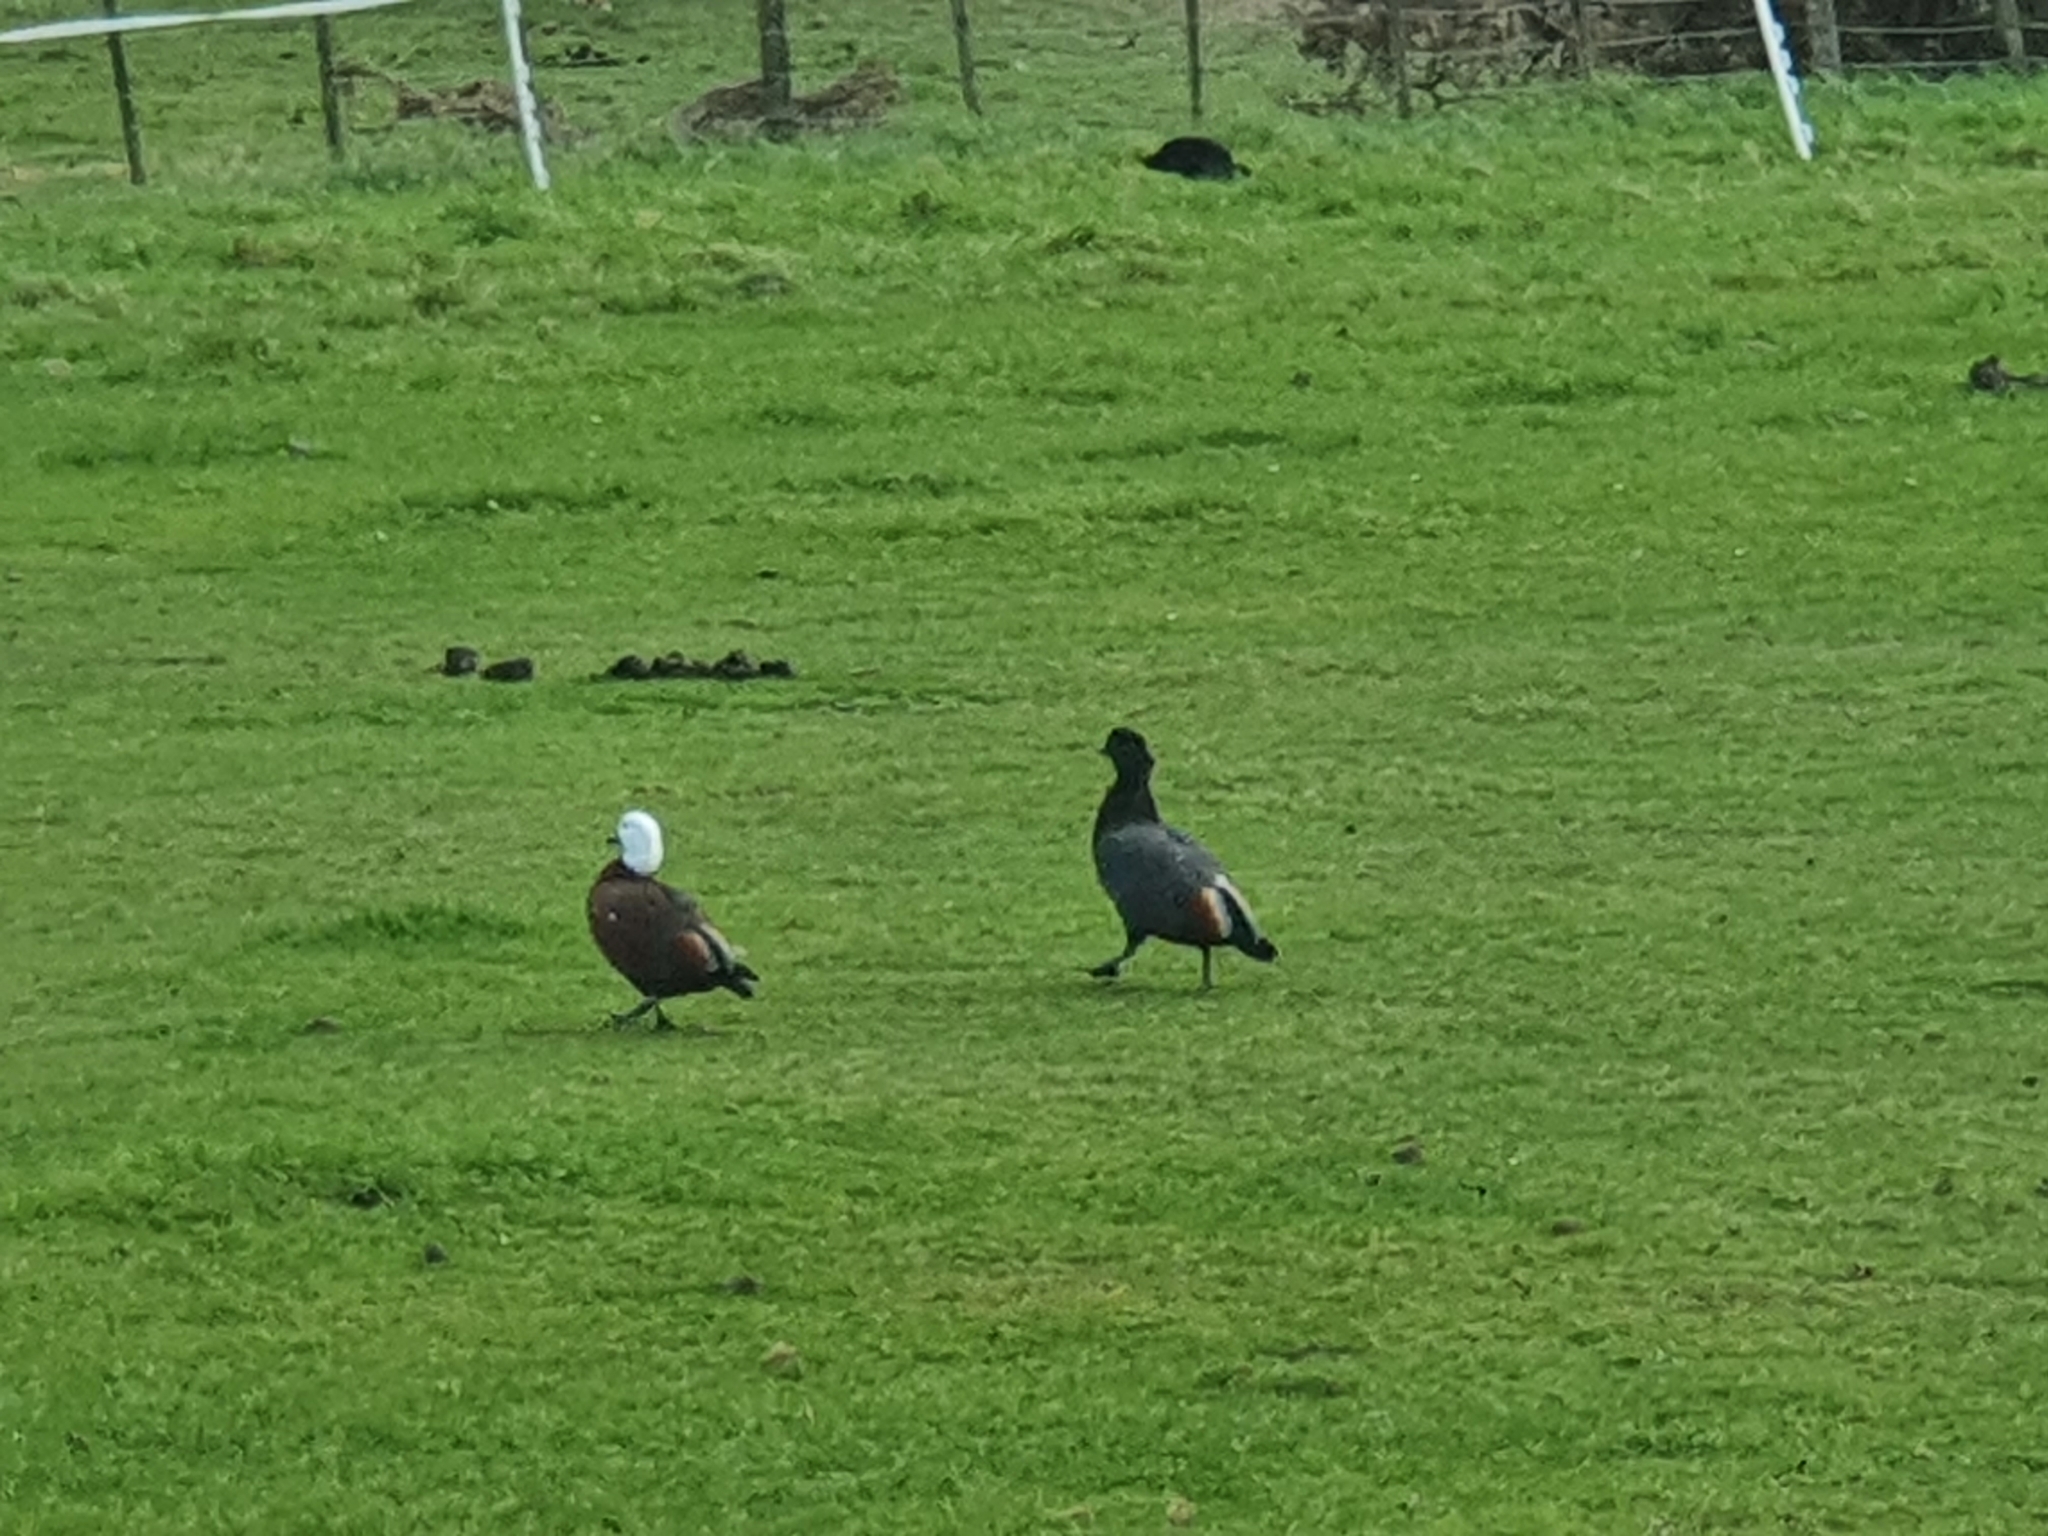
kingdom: Animalia
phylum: Chordata
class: Aves
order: Anseriformes
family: Anatidae
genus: Tadorna
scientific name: Tadorna variegata
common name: Paradise shelduck
